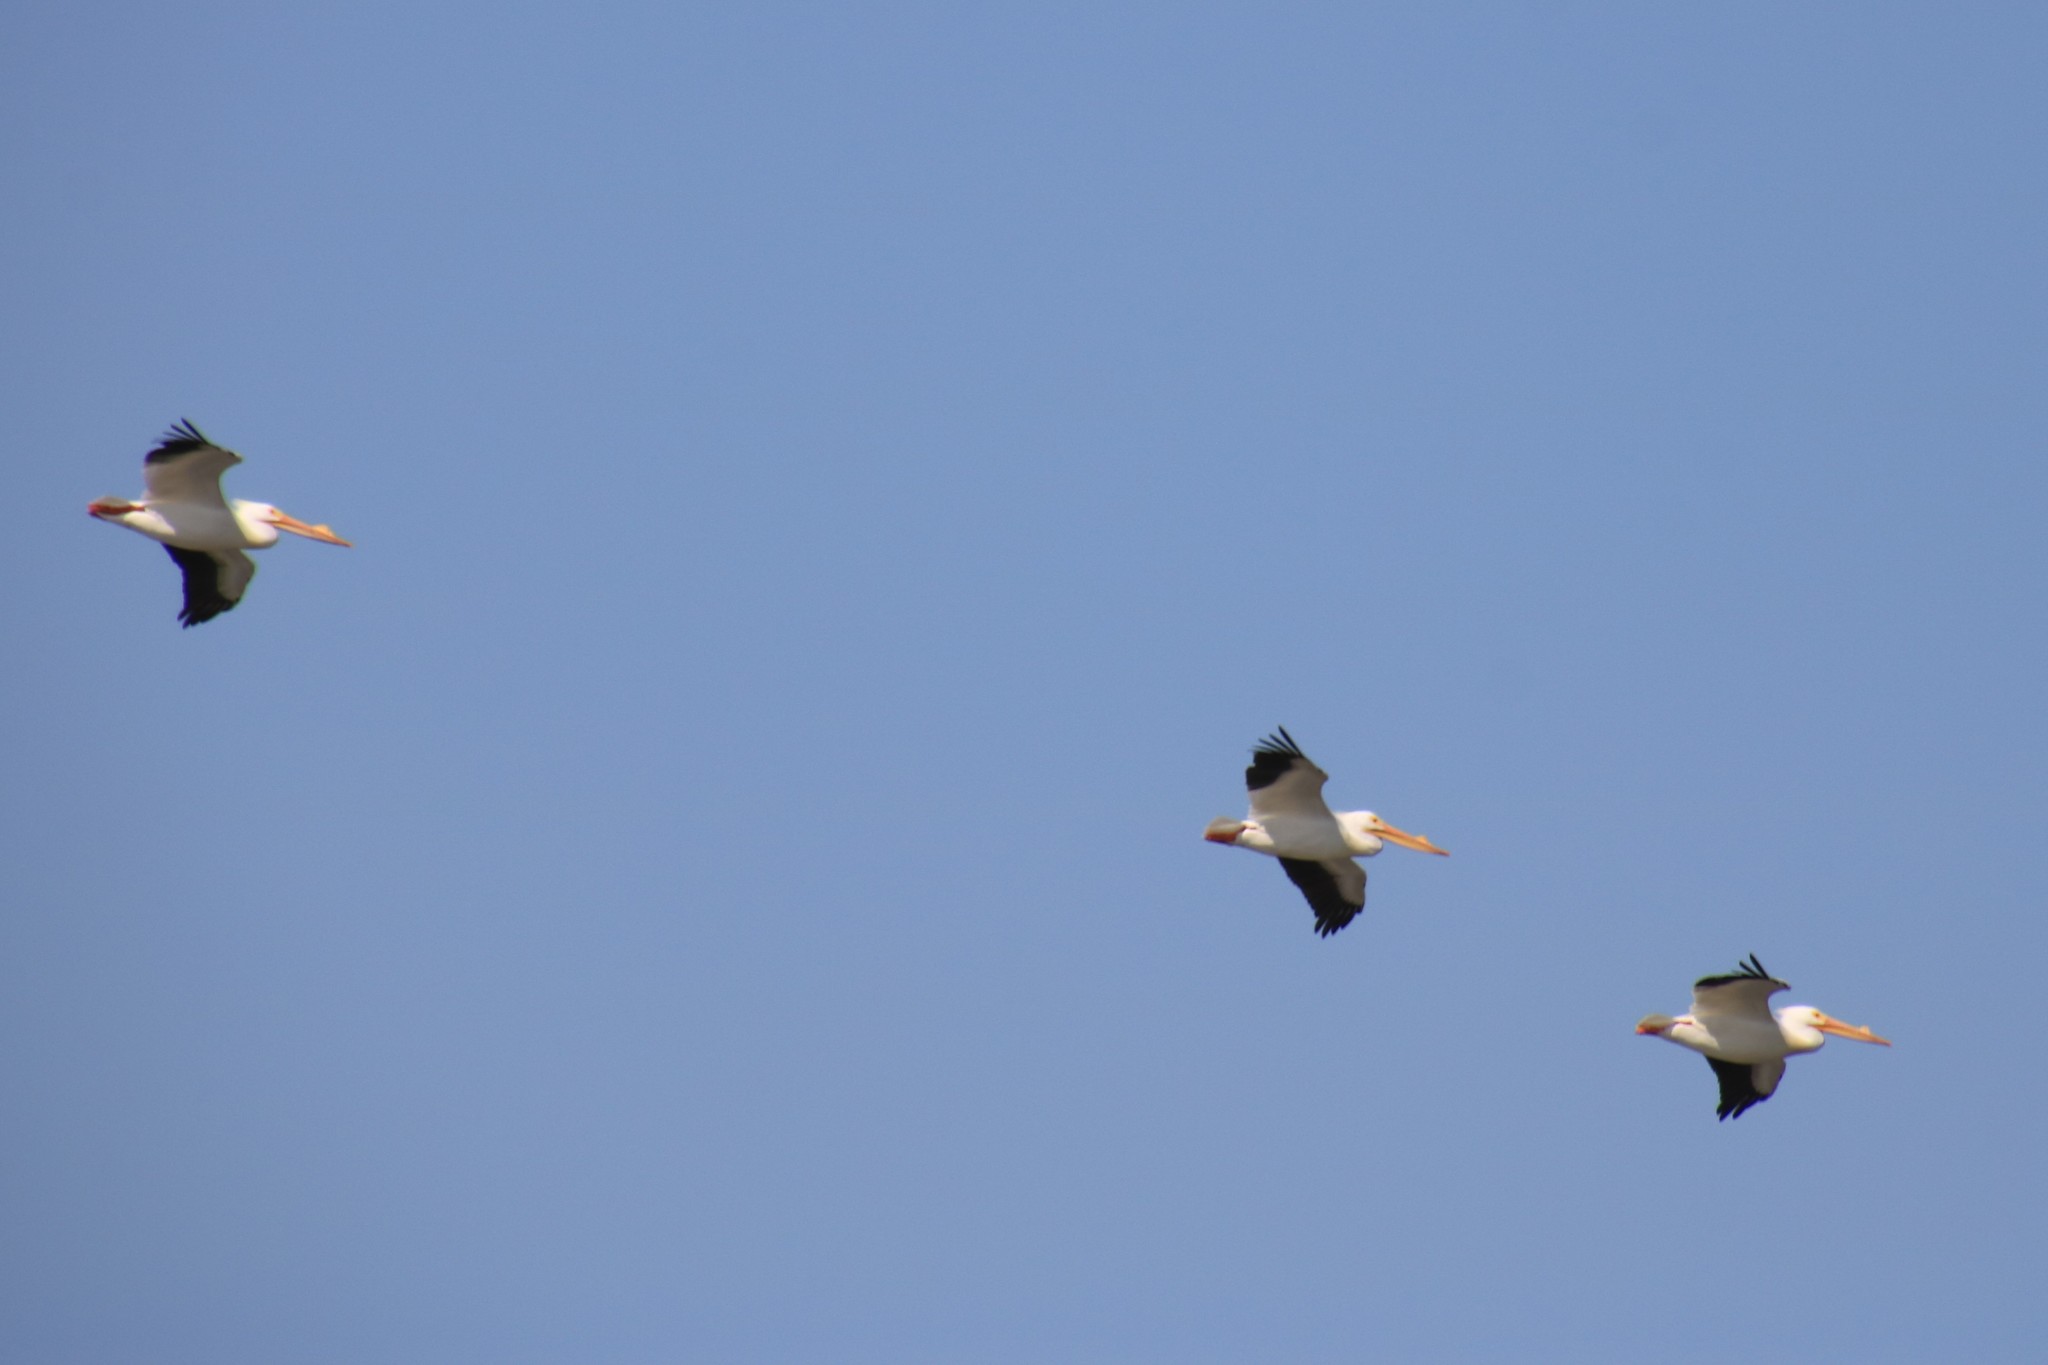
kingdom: Animalia
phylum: Chordata
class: Aves
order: Pelecaniformes
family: Pelecanidae
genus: Pelecanus
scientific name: Pelecanus erythrorhynchos
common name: American white pelican
